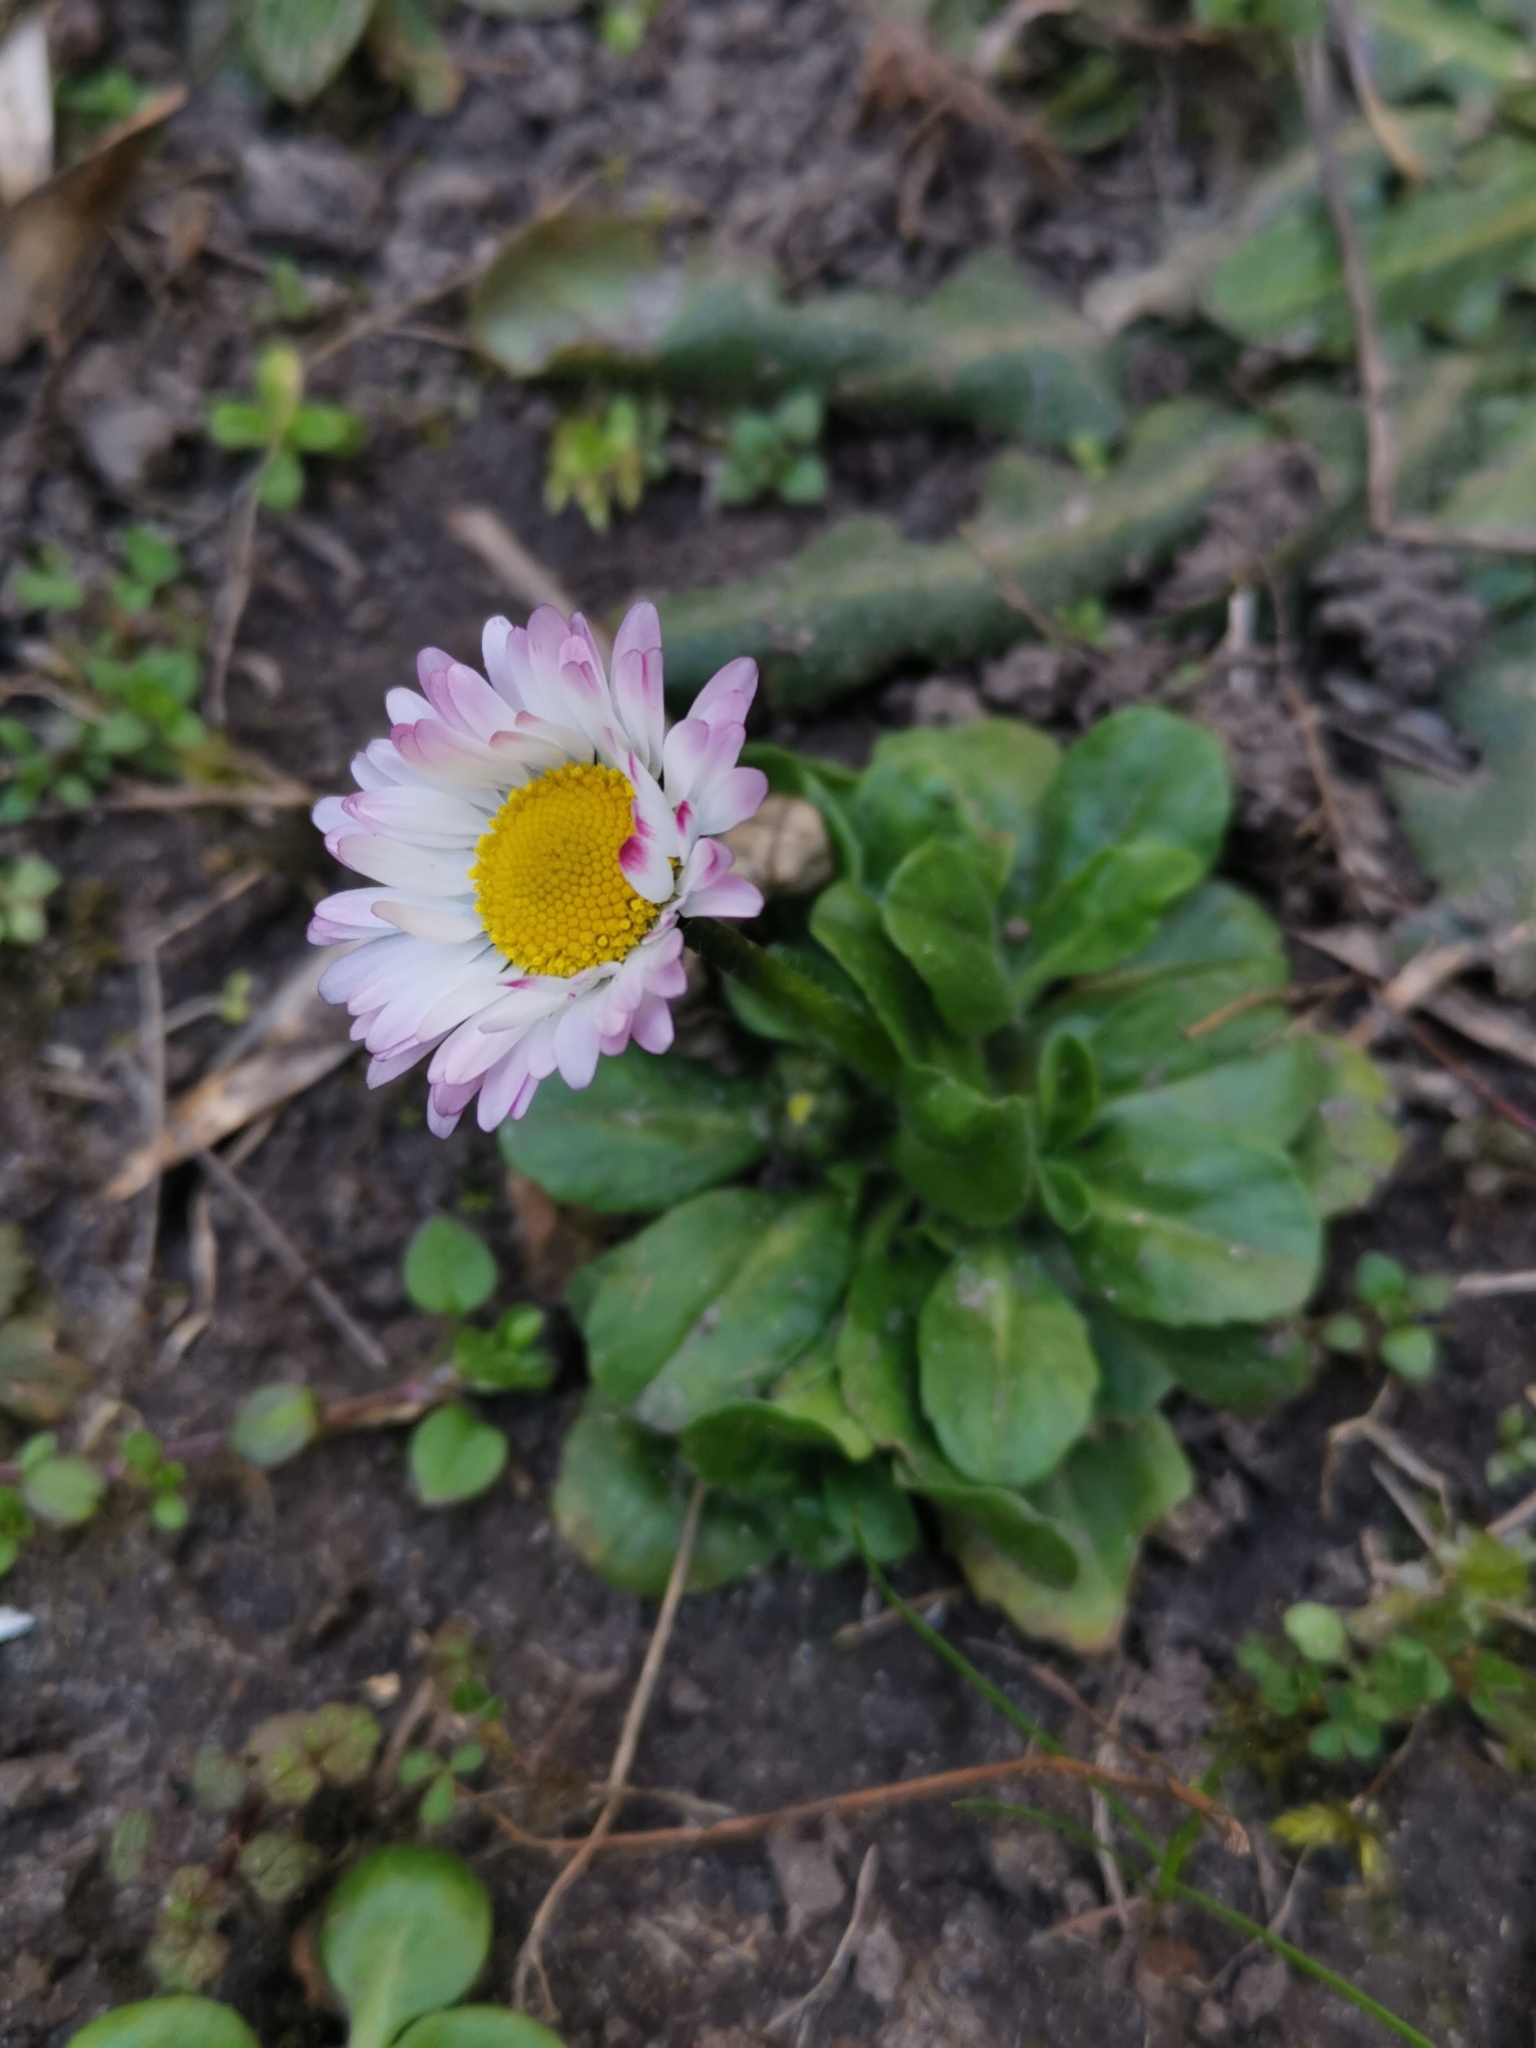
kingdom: Plantae
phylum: Tracheophyta
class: Magnoliopsida
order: Asterales
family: Asteraceae
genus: Bellis
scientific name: Bellis perennis
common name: Lawndaisy
